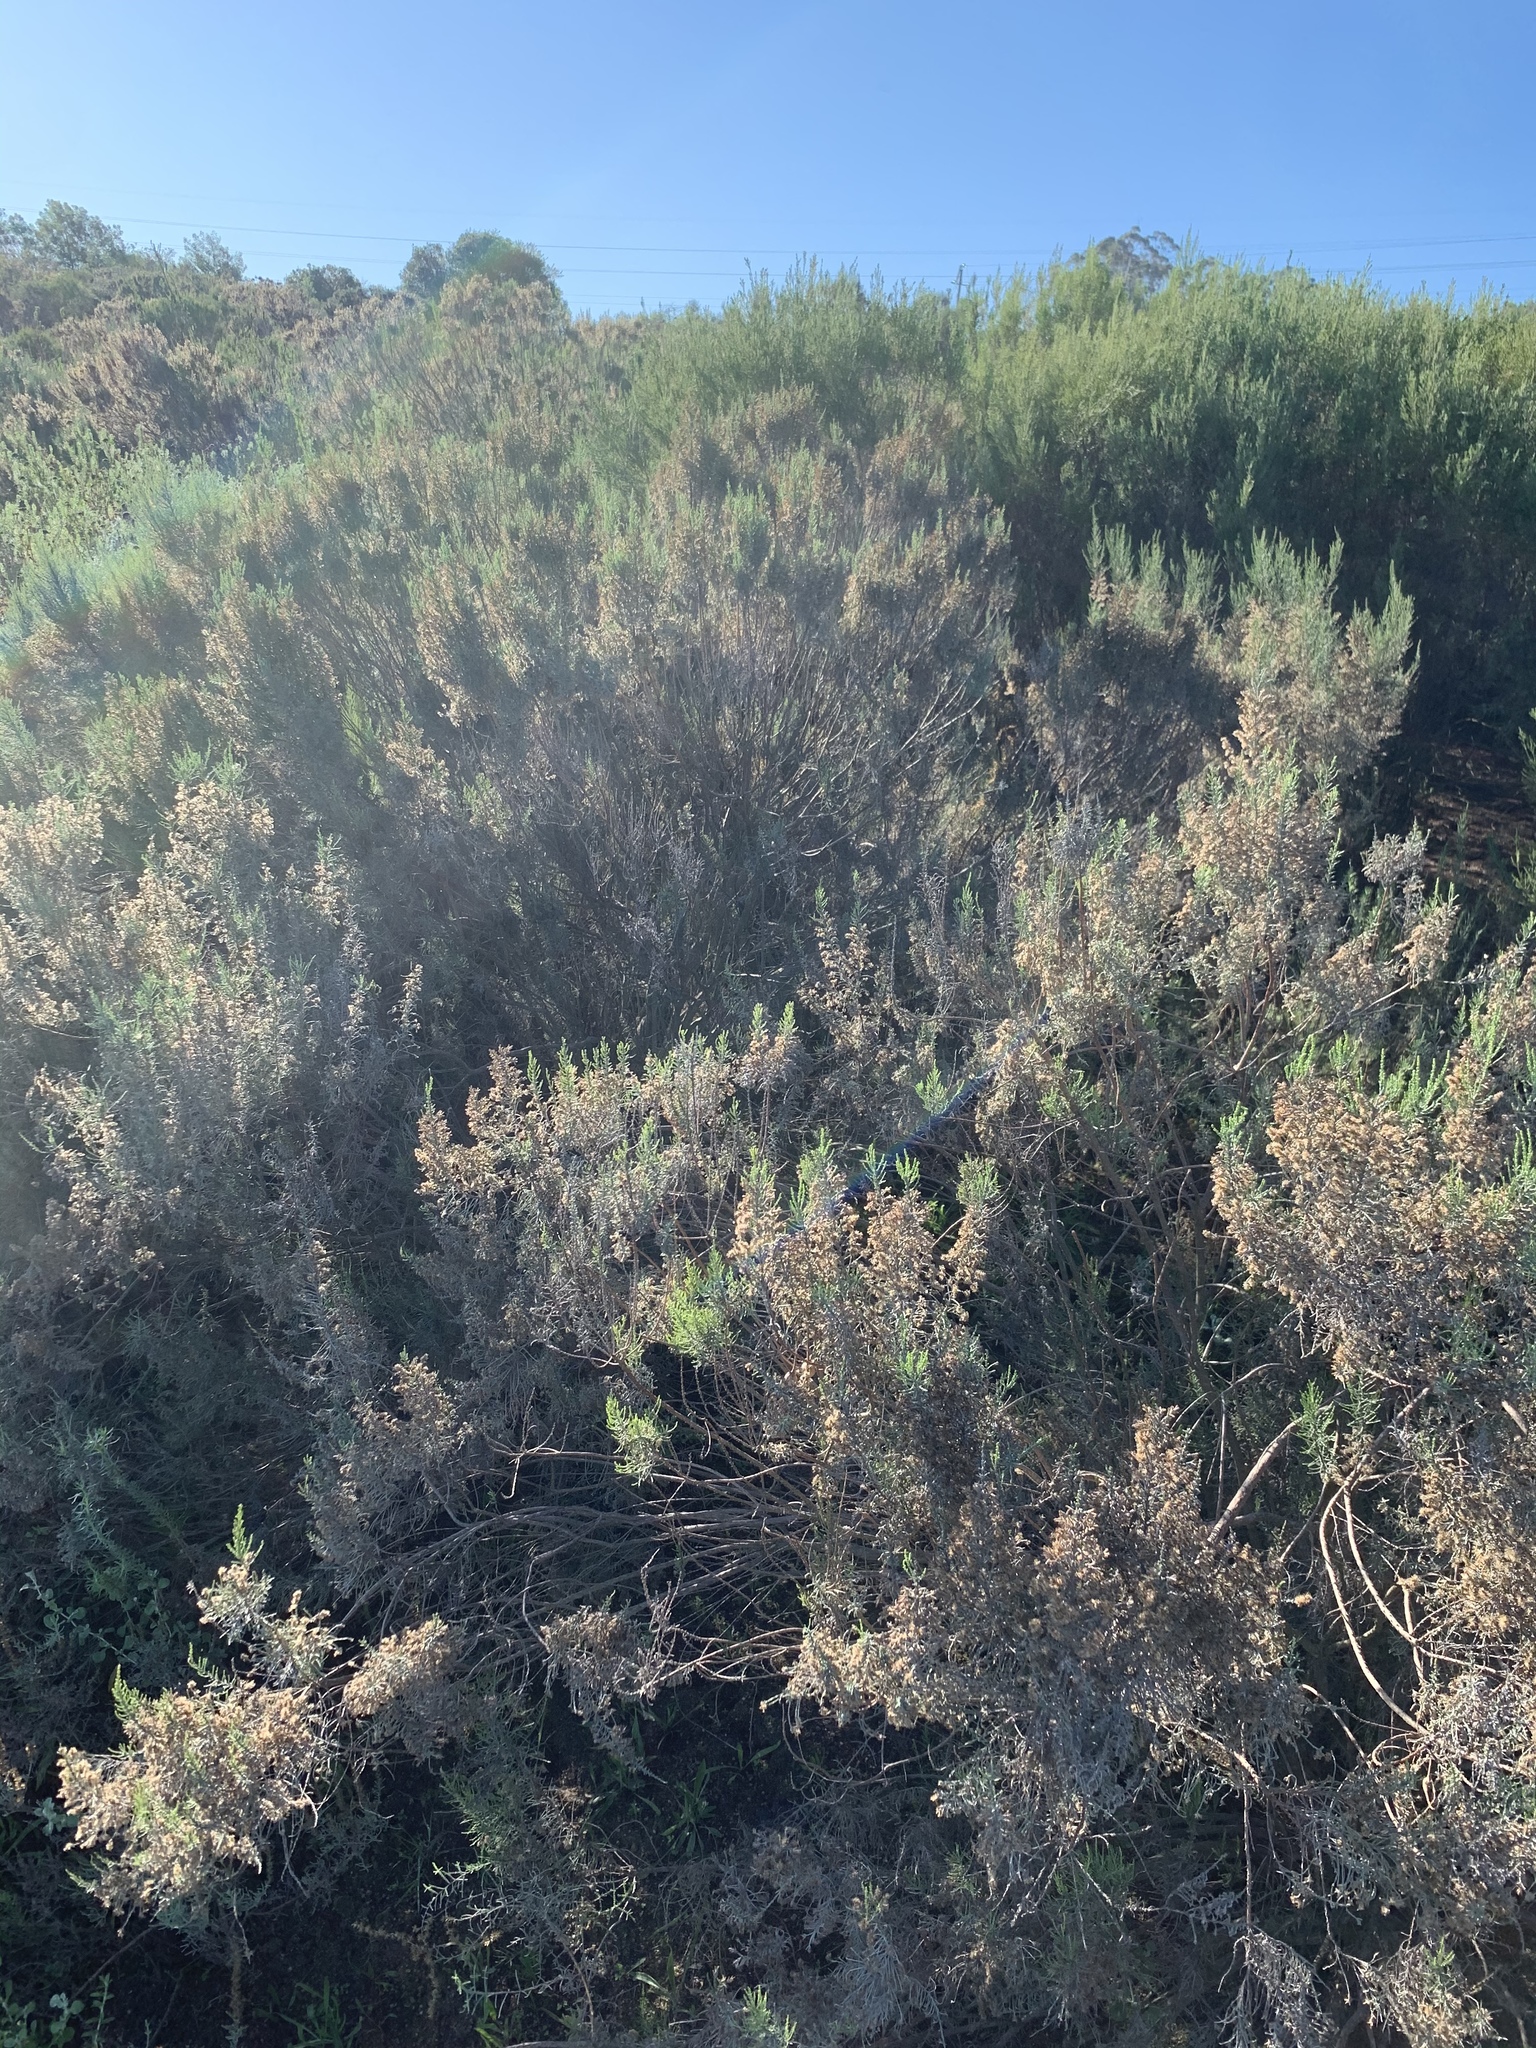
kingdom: Plantae
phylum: Tracheophyta
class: Magnoliopsida
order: Asterales
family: Asteraceae
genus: Dicerothamnus
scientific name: Dicerothamnus rhinocerotis
